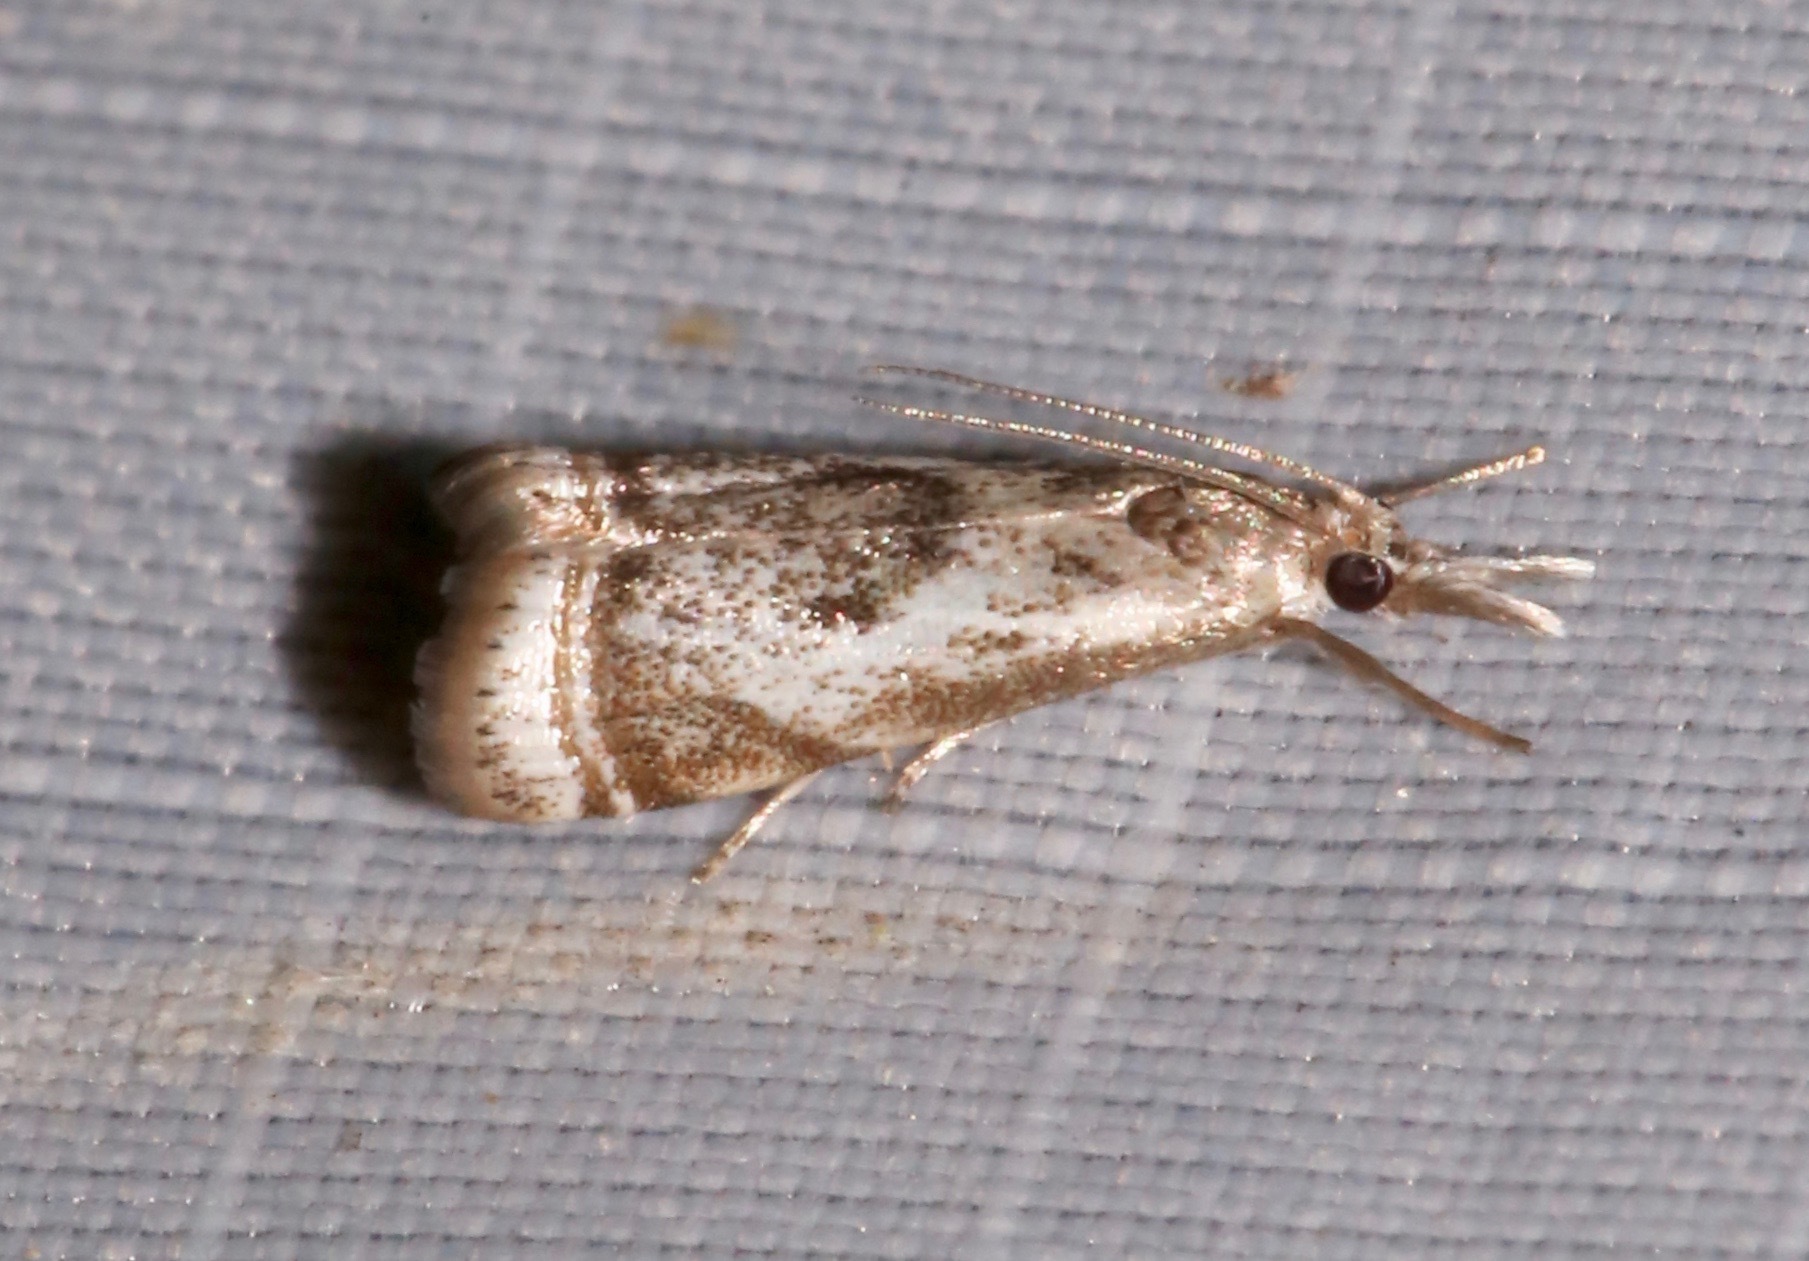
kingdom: Animalia
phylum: Arthropoda
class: Insecta
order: Lepidoptera
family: Crambidae
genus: Microcrambus
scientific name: Microcrambus elegans
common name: Elegant grass-veneer
